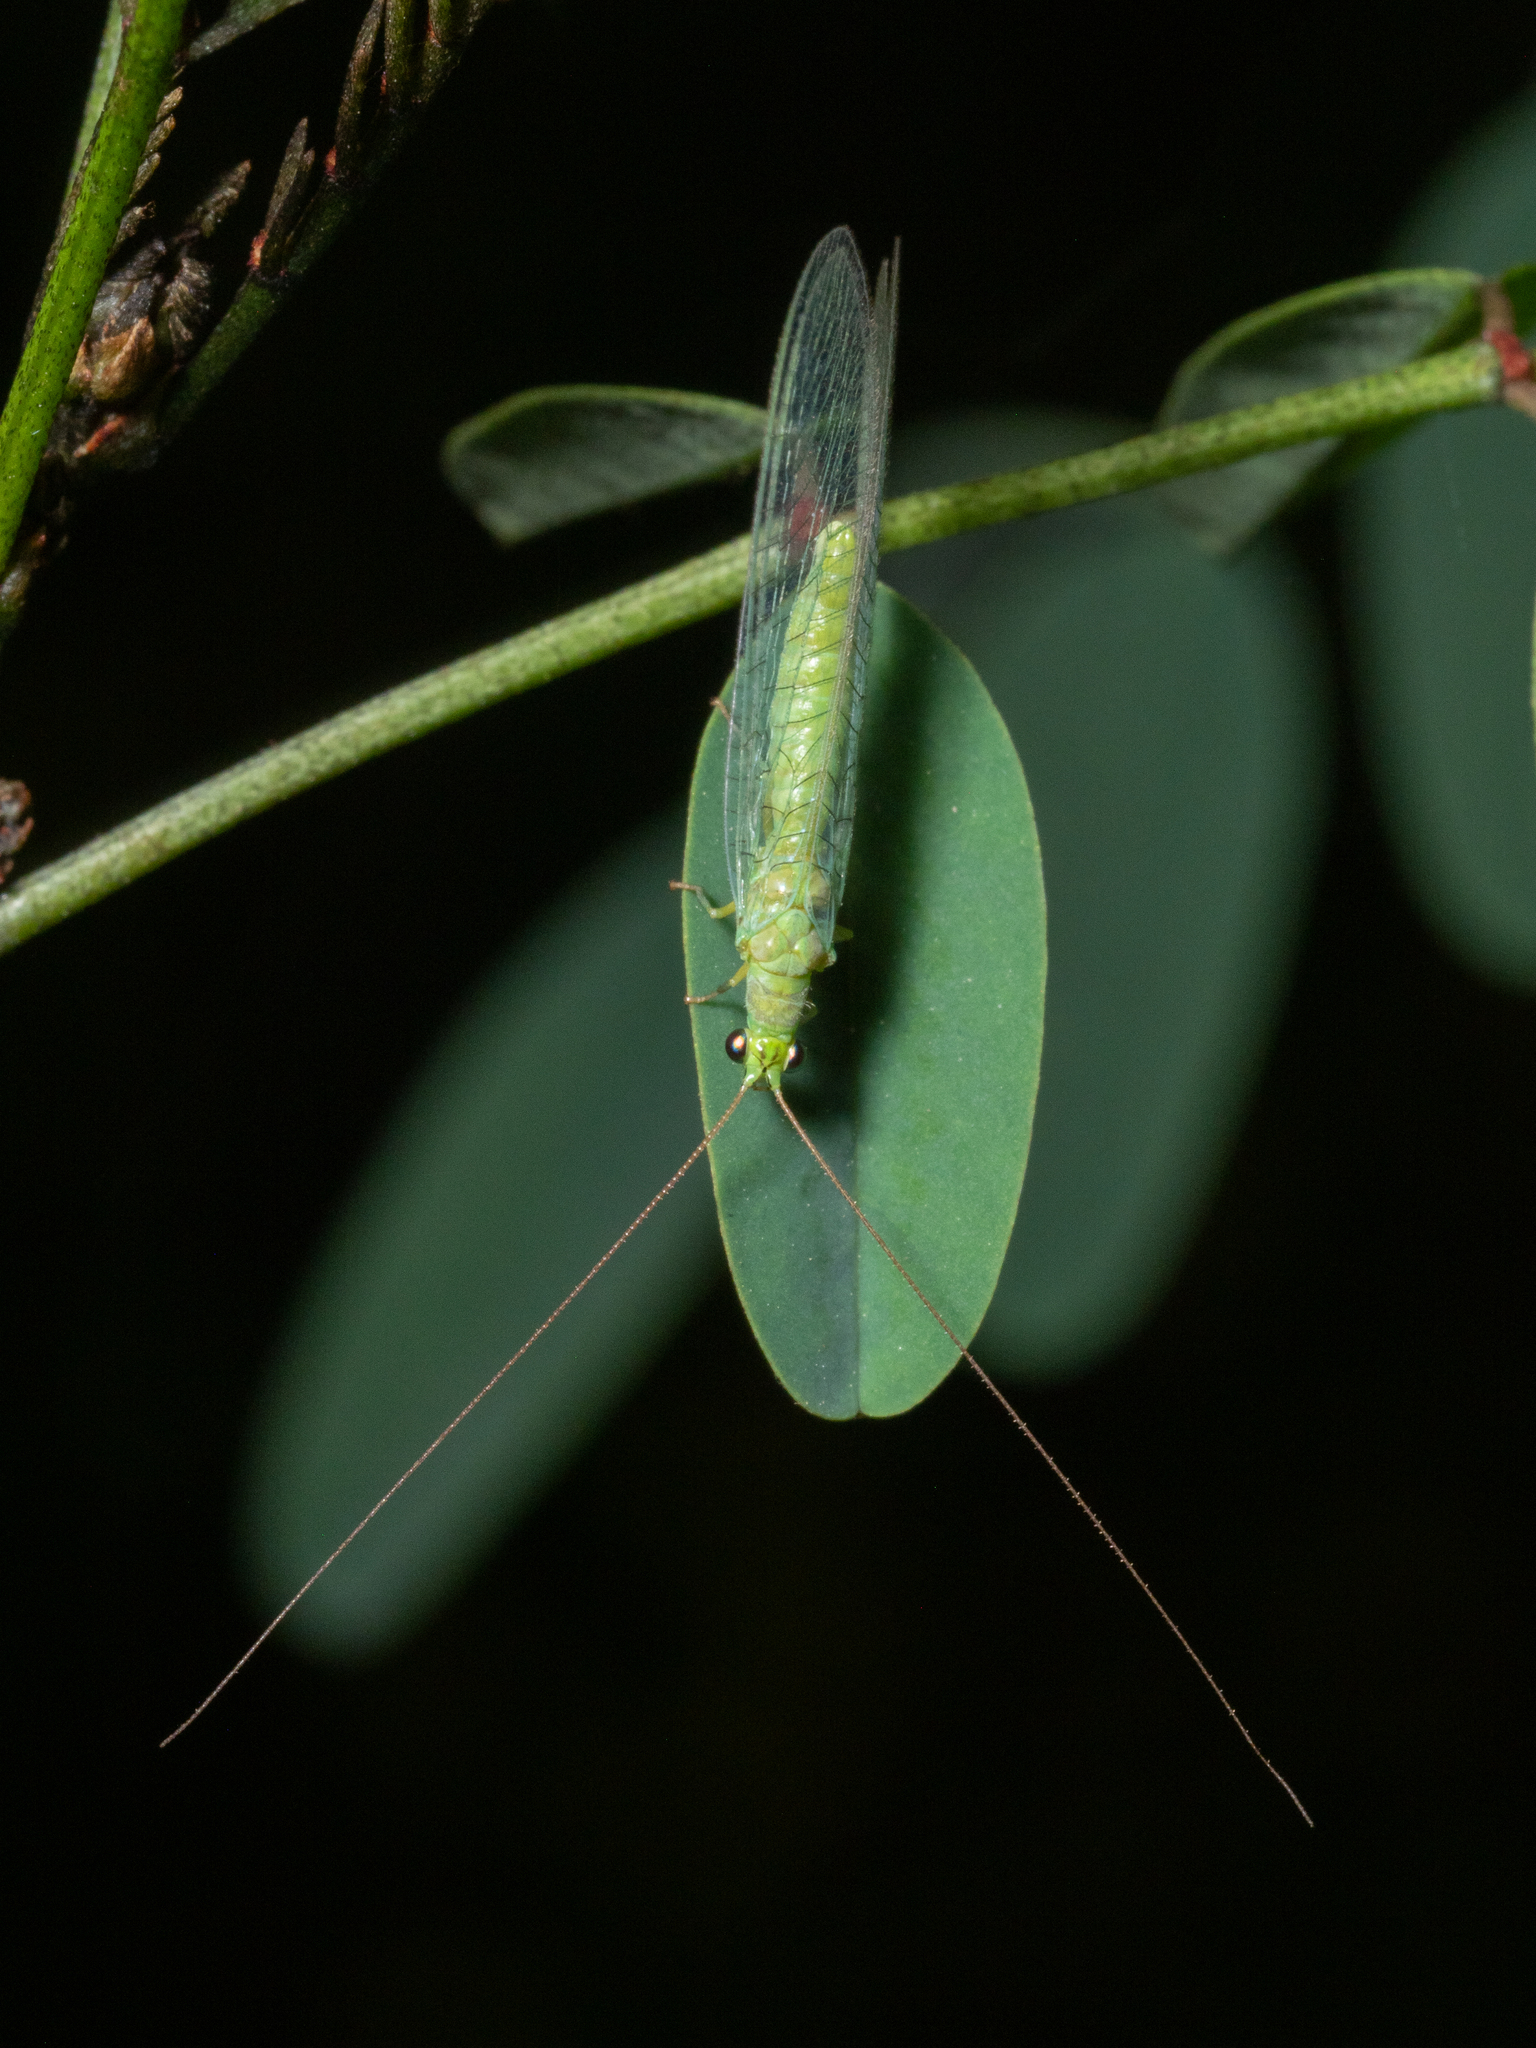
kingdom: Animalia
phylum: Arthropoda
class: Insecta
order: Neuroptera
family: Chrysopidae
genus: Mallada
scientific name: Mallada signatus
